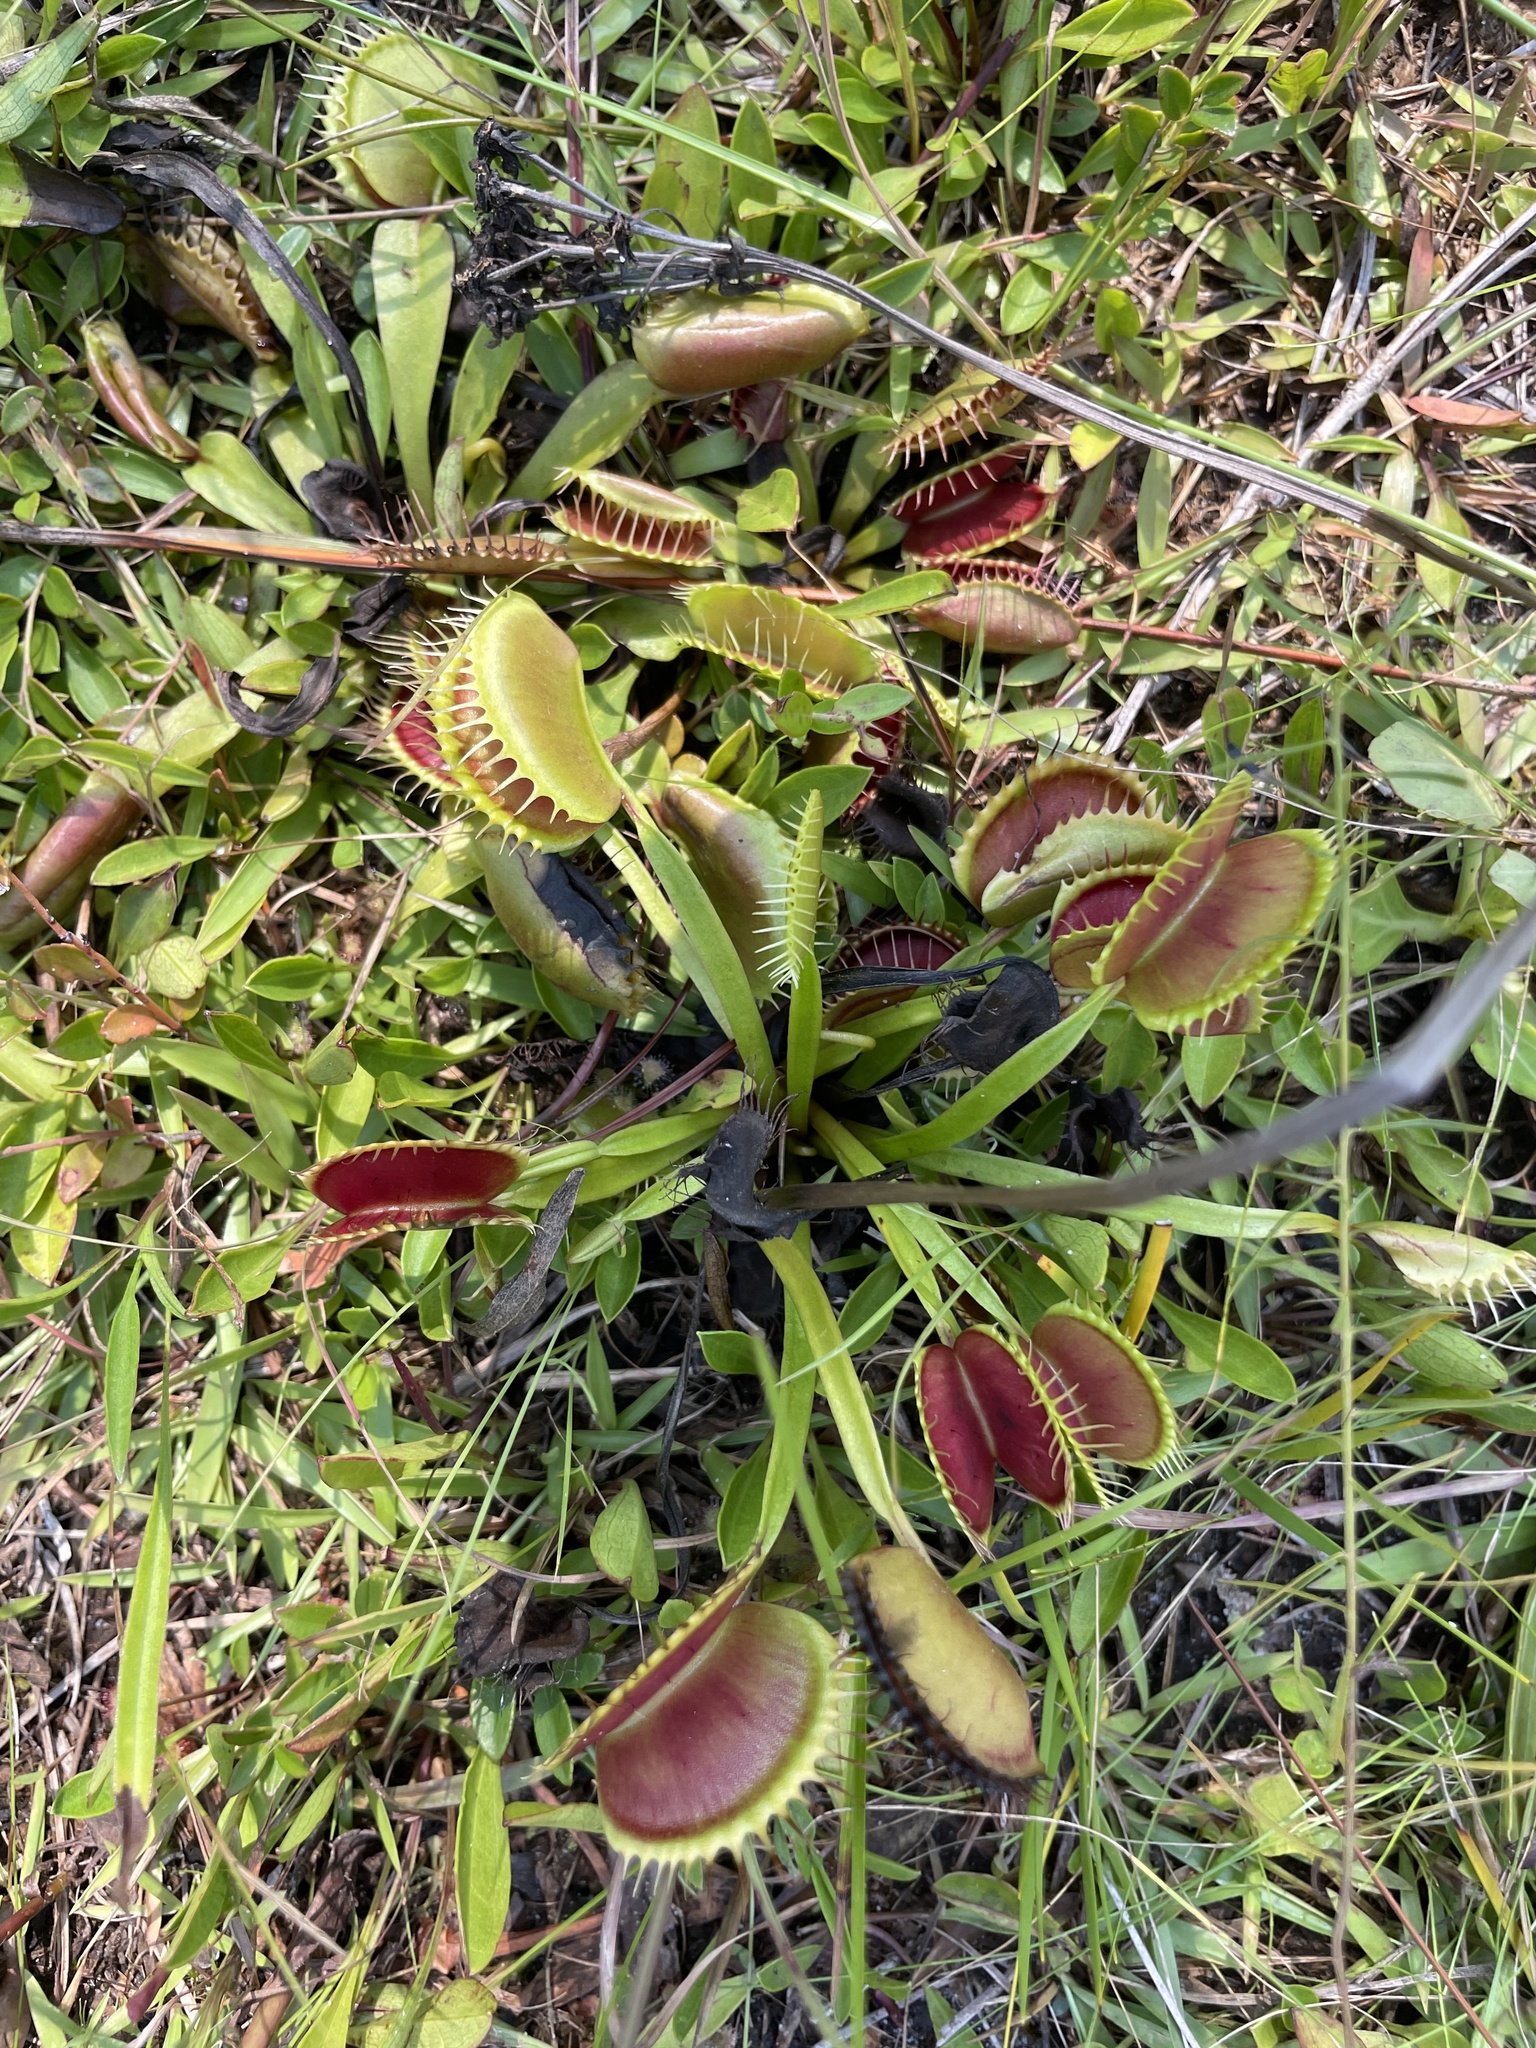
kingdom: Plantae
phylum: Tracheophyta
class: Magnoliopsida
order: Caryophyllales
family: Droseraceae
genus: Dionaea
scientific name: Dionaea muscipula
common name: Venus flytrap
